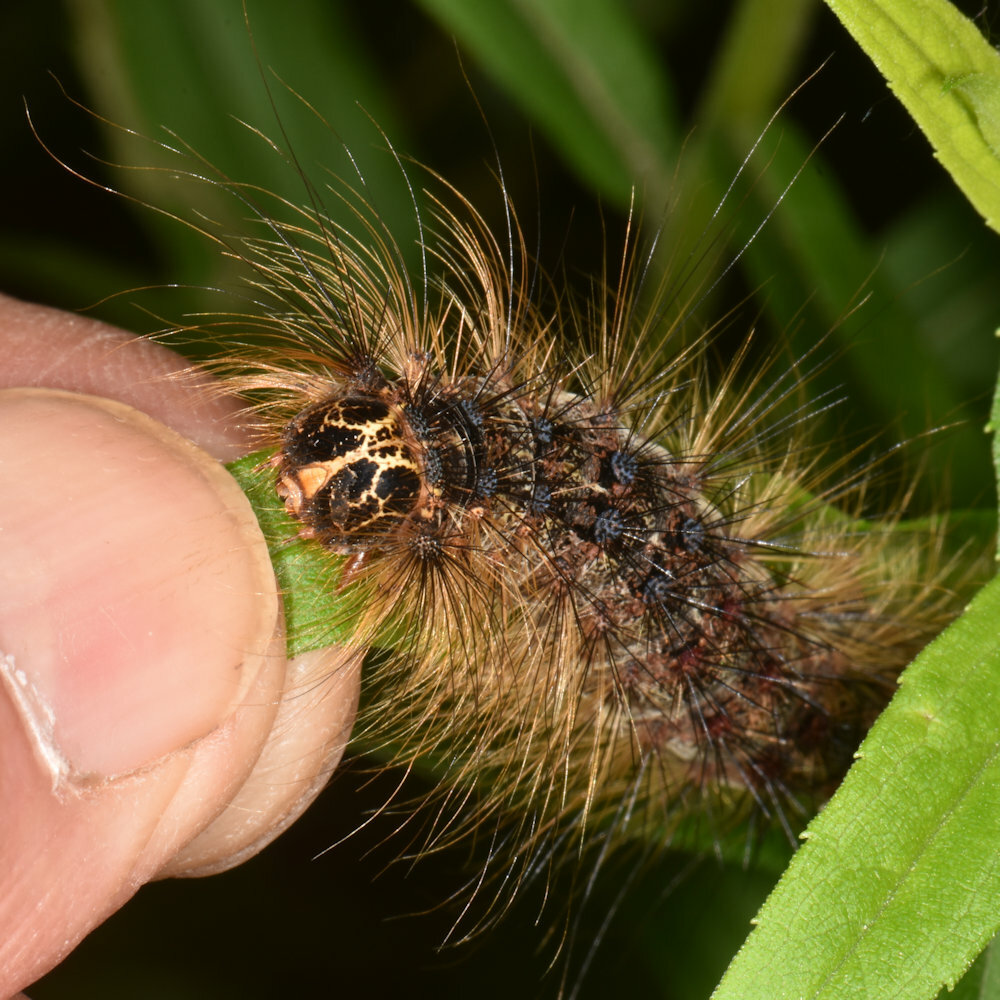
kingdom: Animalia
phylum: Arthropoda
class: Insecta
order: Lepidoptera
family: Erebidae
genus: Lymantria
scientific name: Lymantria dispar
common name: Gypsy moth
